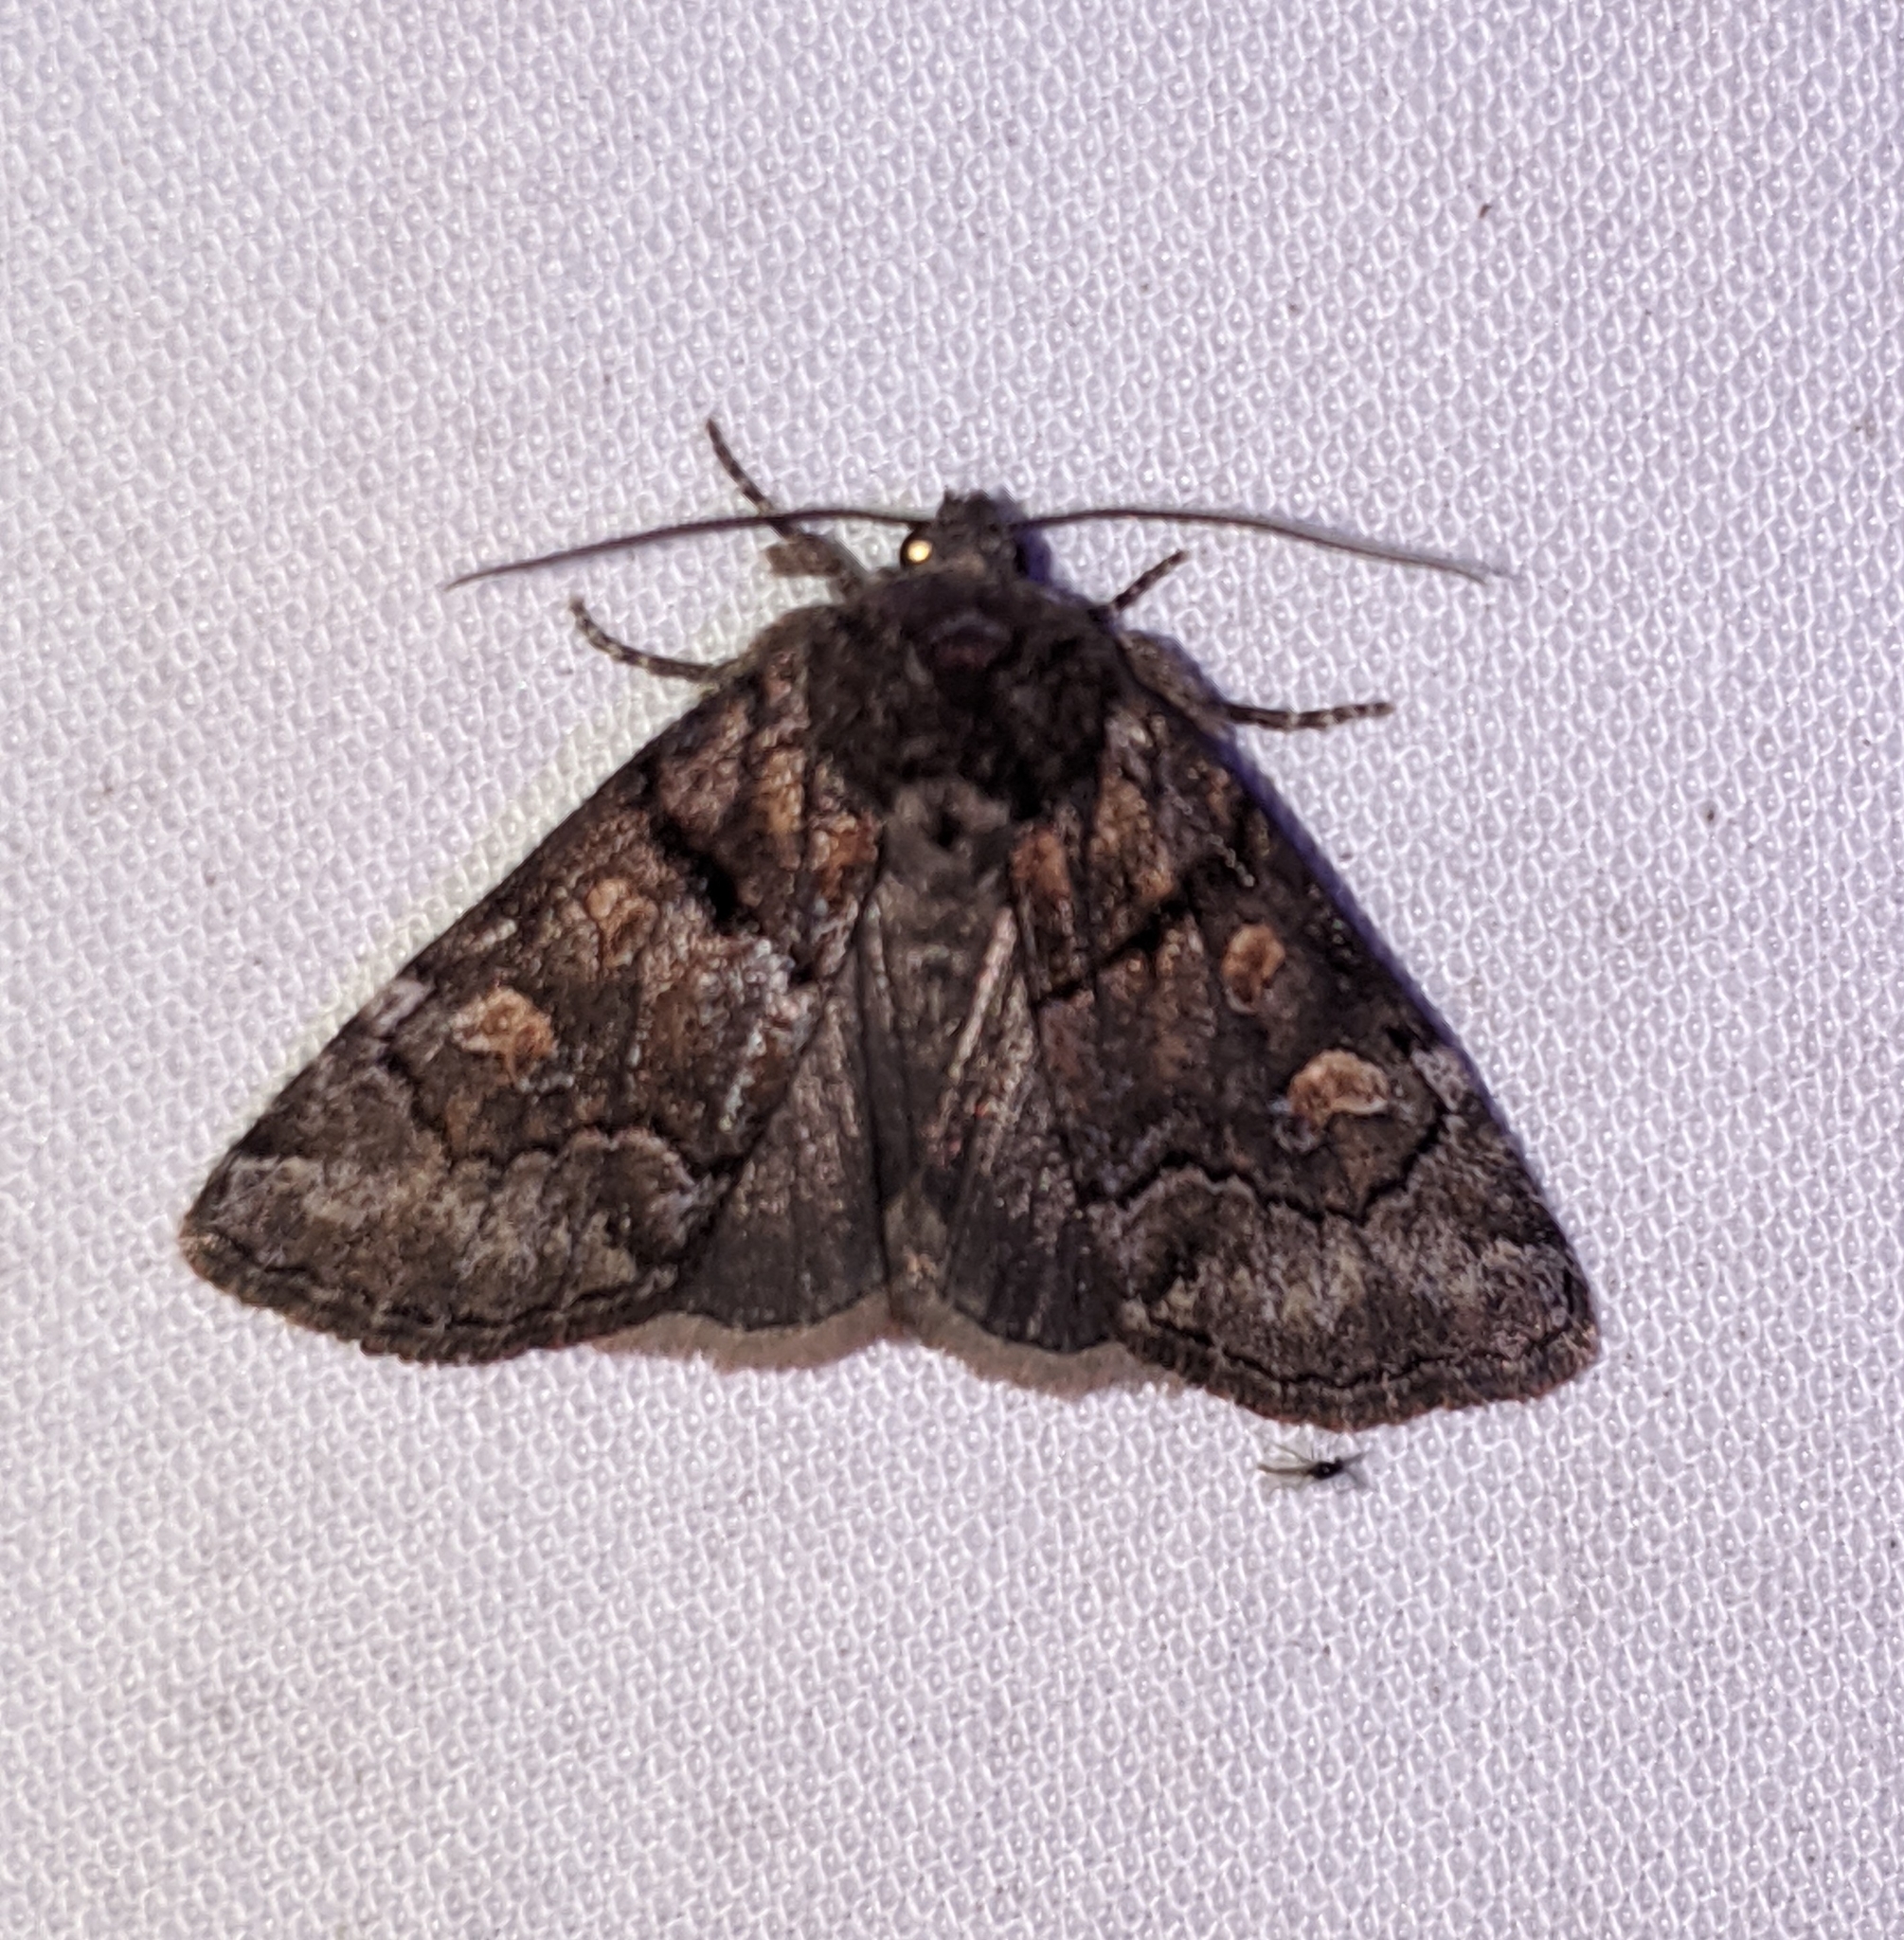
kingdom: Animalia
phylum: Arthropoda
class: Insecta
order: Lepidoptera
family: Noctuidae
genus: Cosmia
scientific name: Cosmia praeacuta
